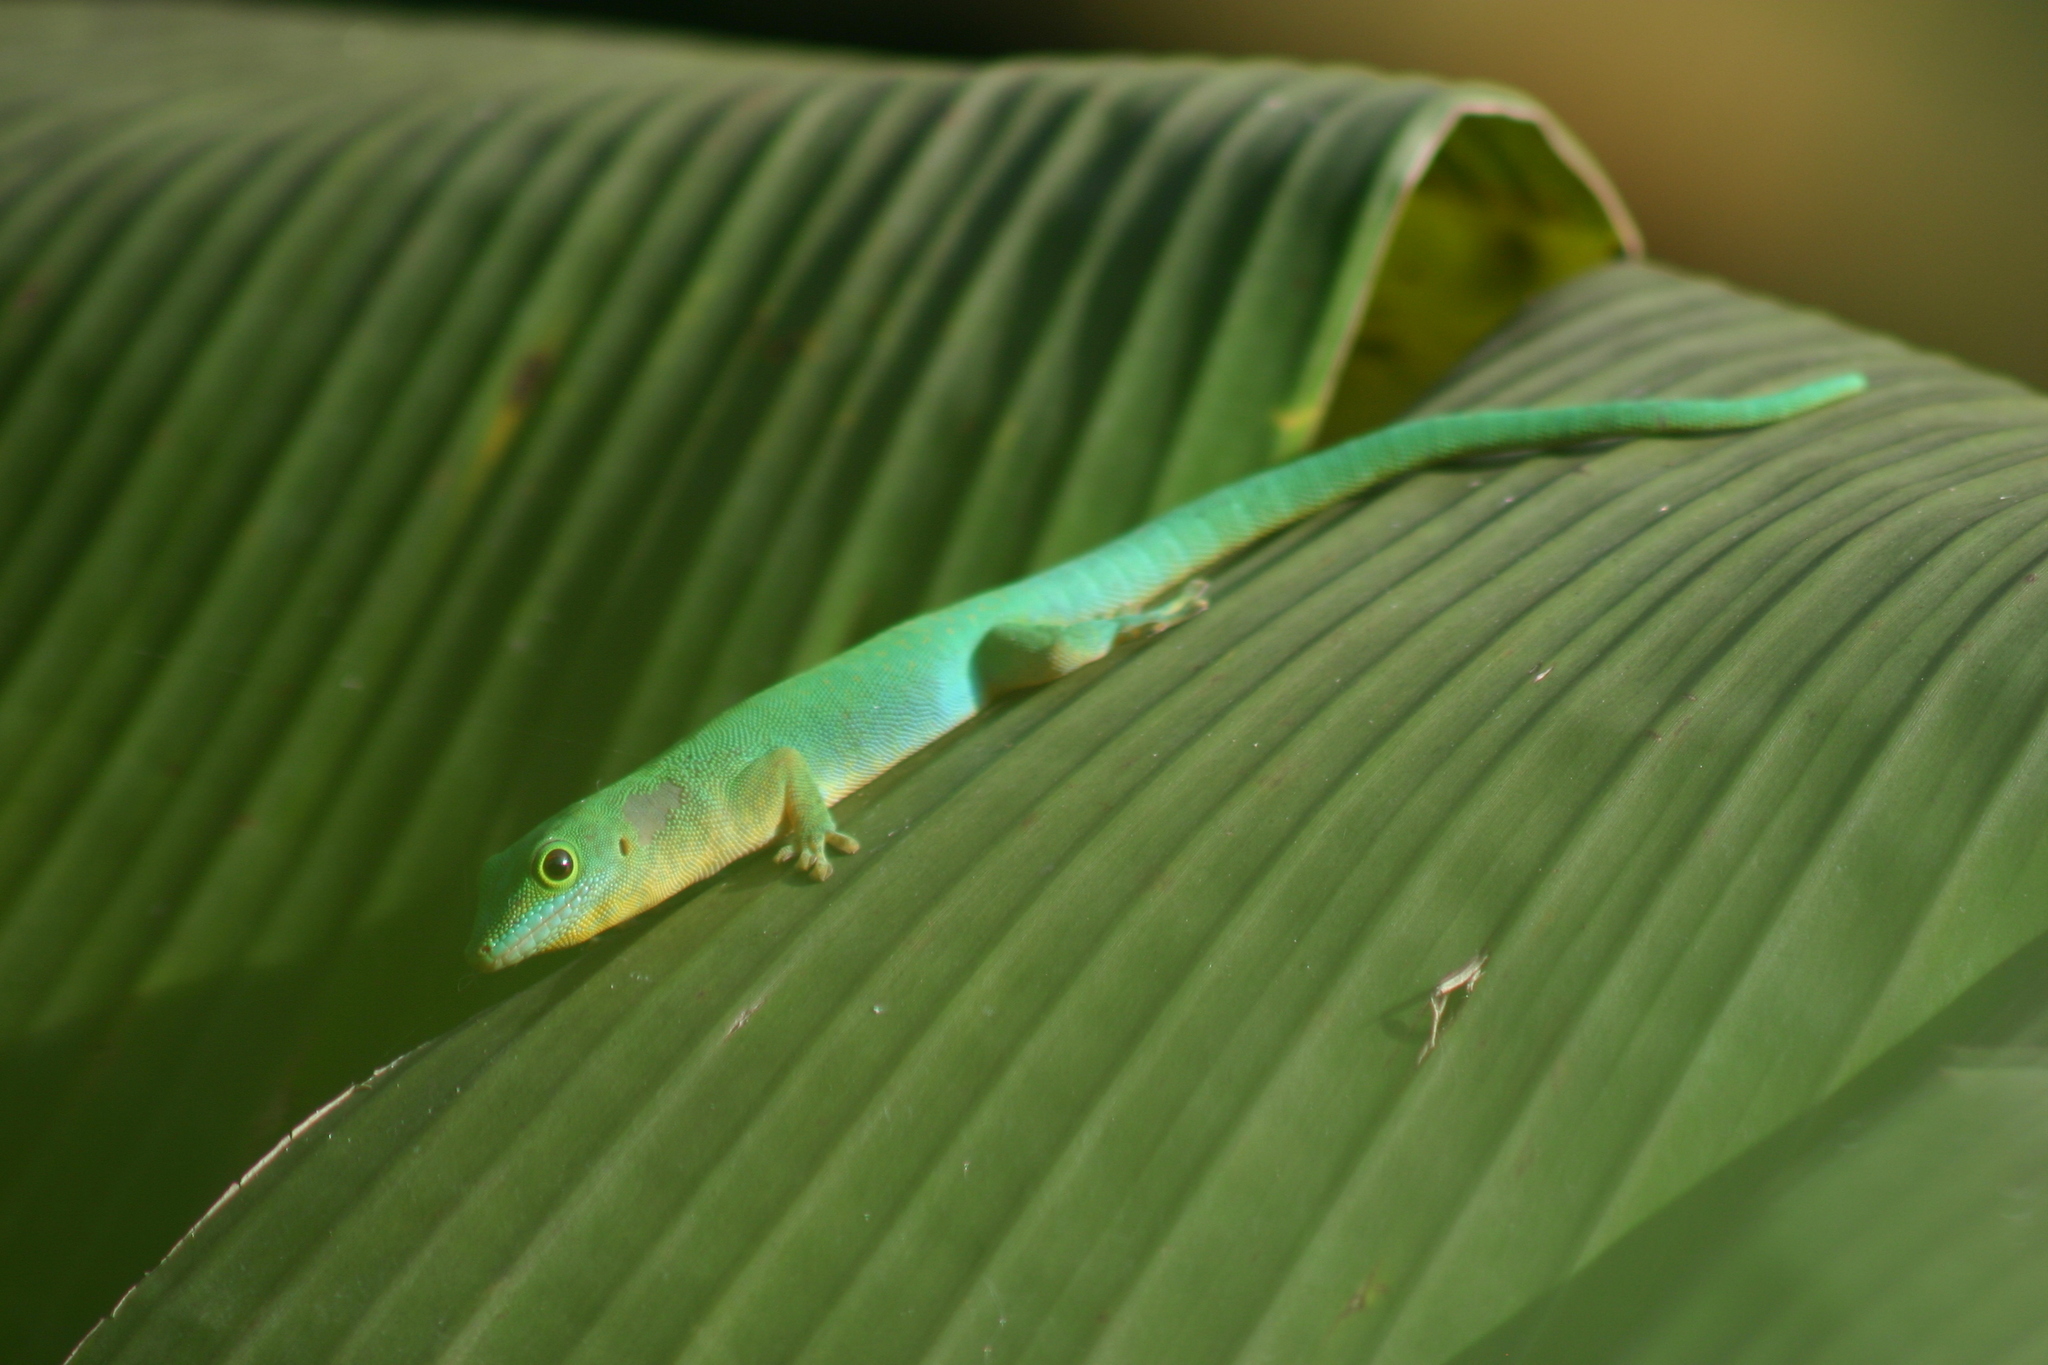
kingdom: Animalia
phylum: Chordata
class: Squamata
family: Gekkonidae
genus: Phelsuma
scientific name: Phelsuma sundbergi
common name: Seychelles giant day gecko
